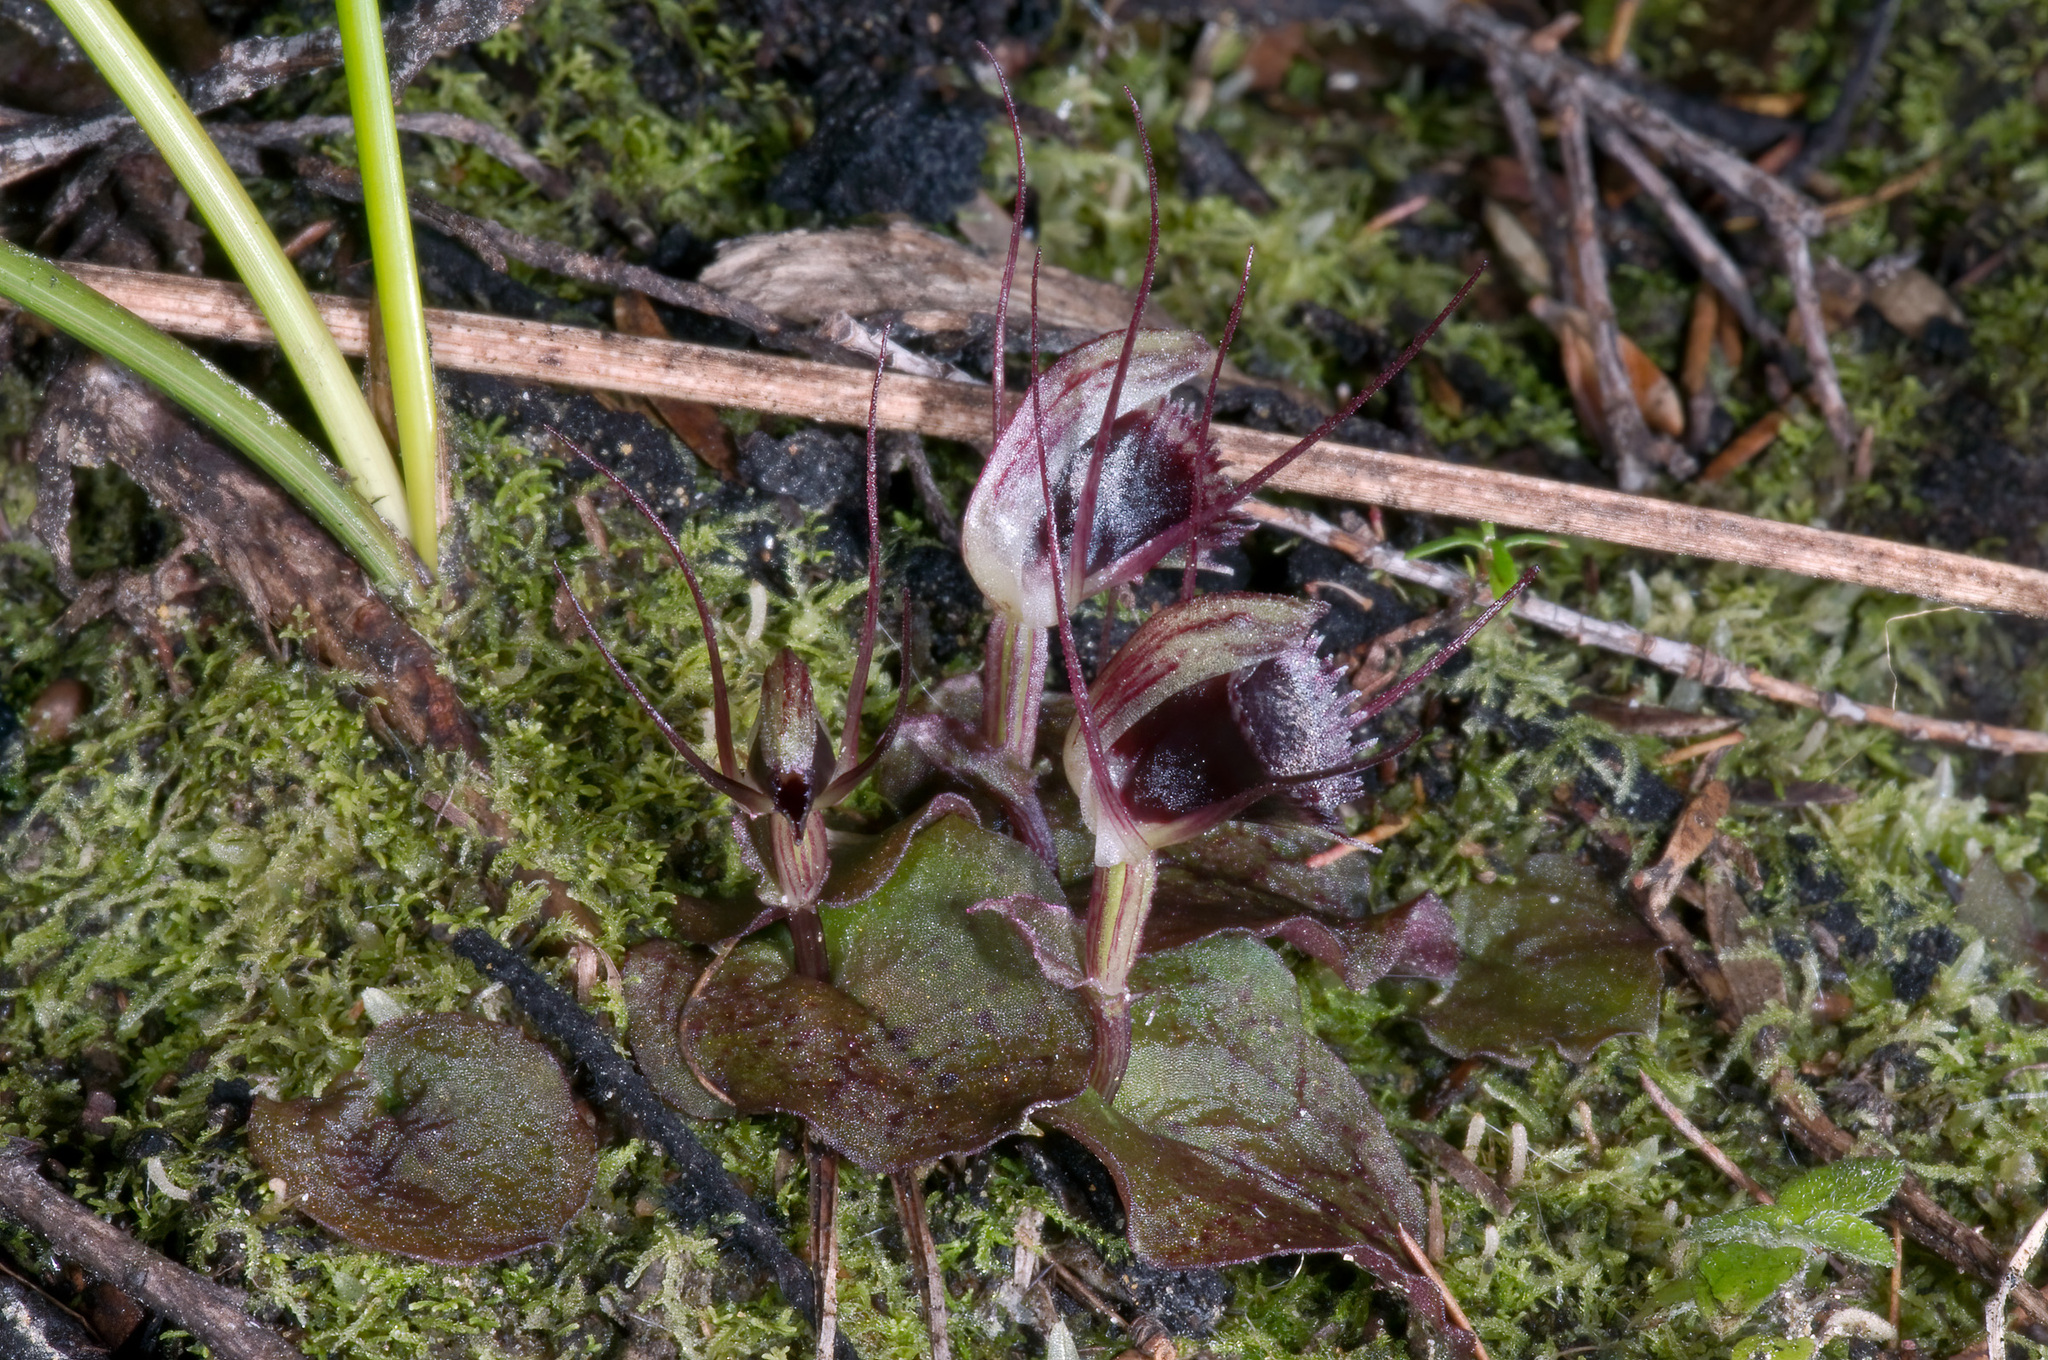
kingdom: Plantae
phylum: Tracheophyta
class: Liliopsida
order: Asparagales
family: Orchidaceae
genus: Corybas
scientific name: Corybas oblongus
